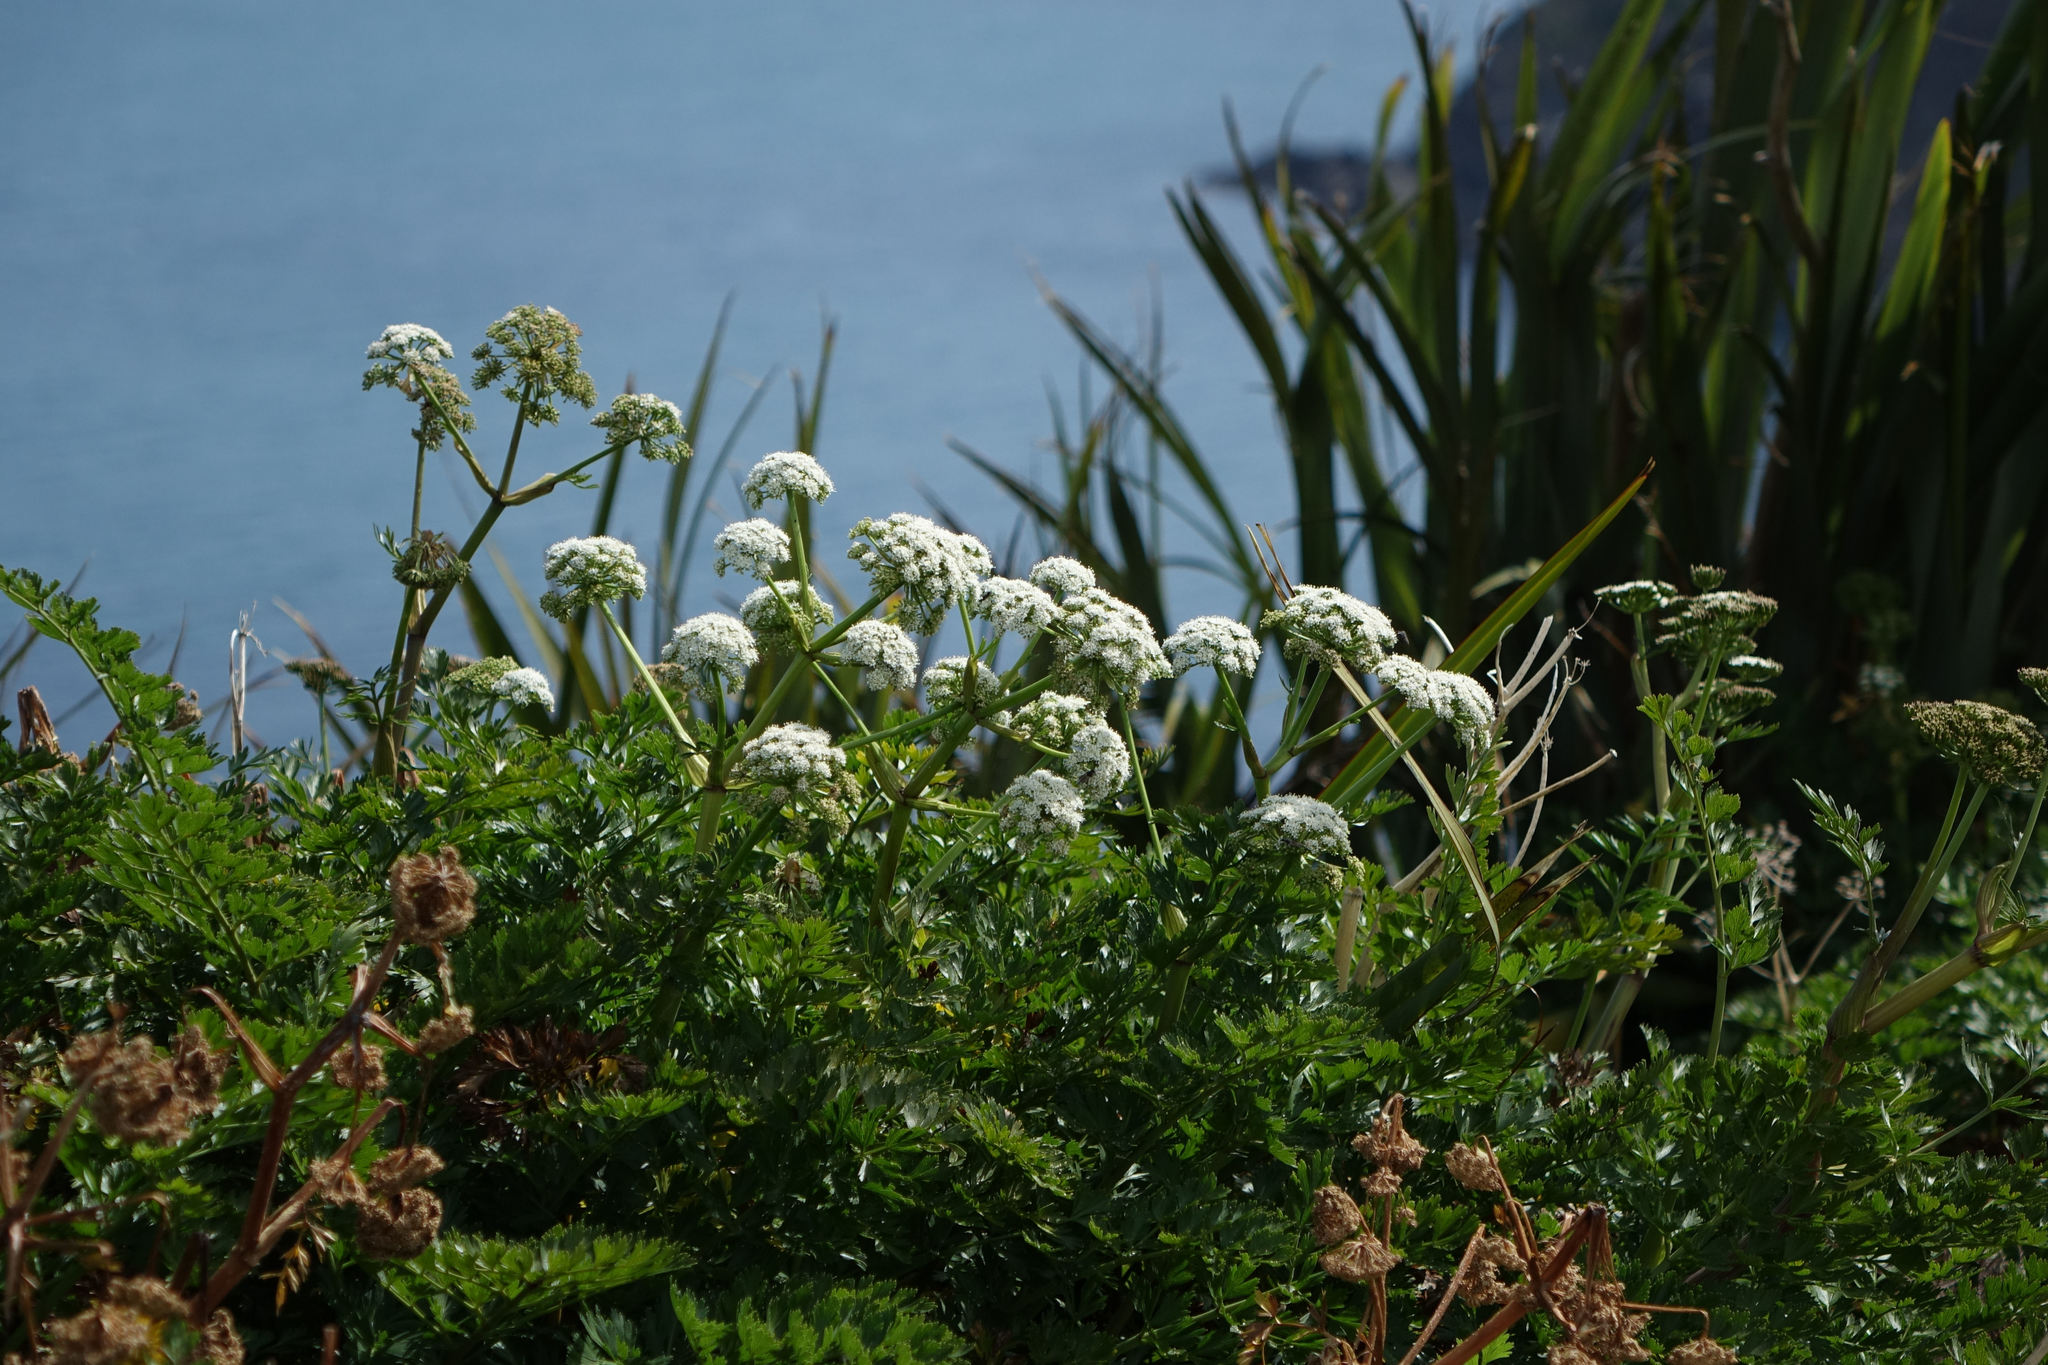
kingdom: Plantae
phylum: Tracheophyta
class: Magnoliopsida
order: Apiales
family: Apiaceae
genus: Anisotome
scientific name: Anisotome lyallii
